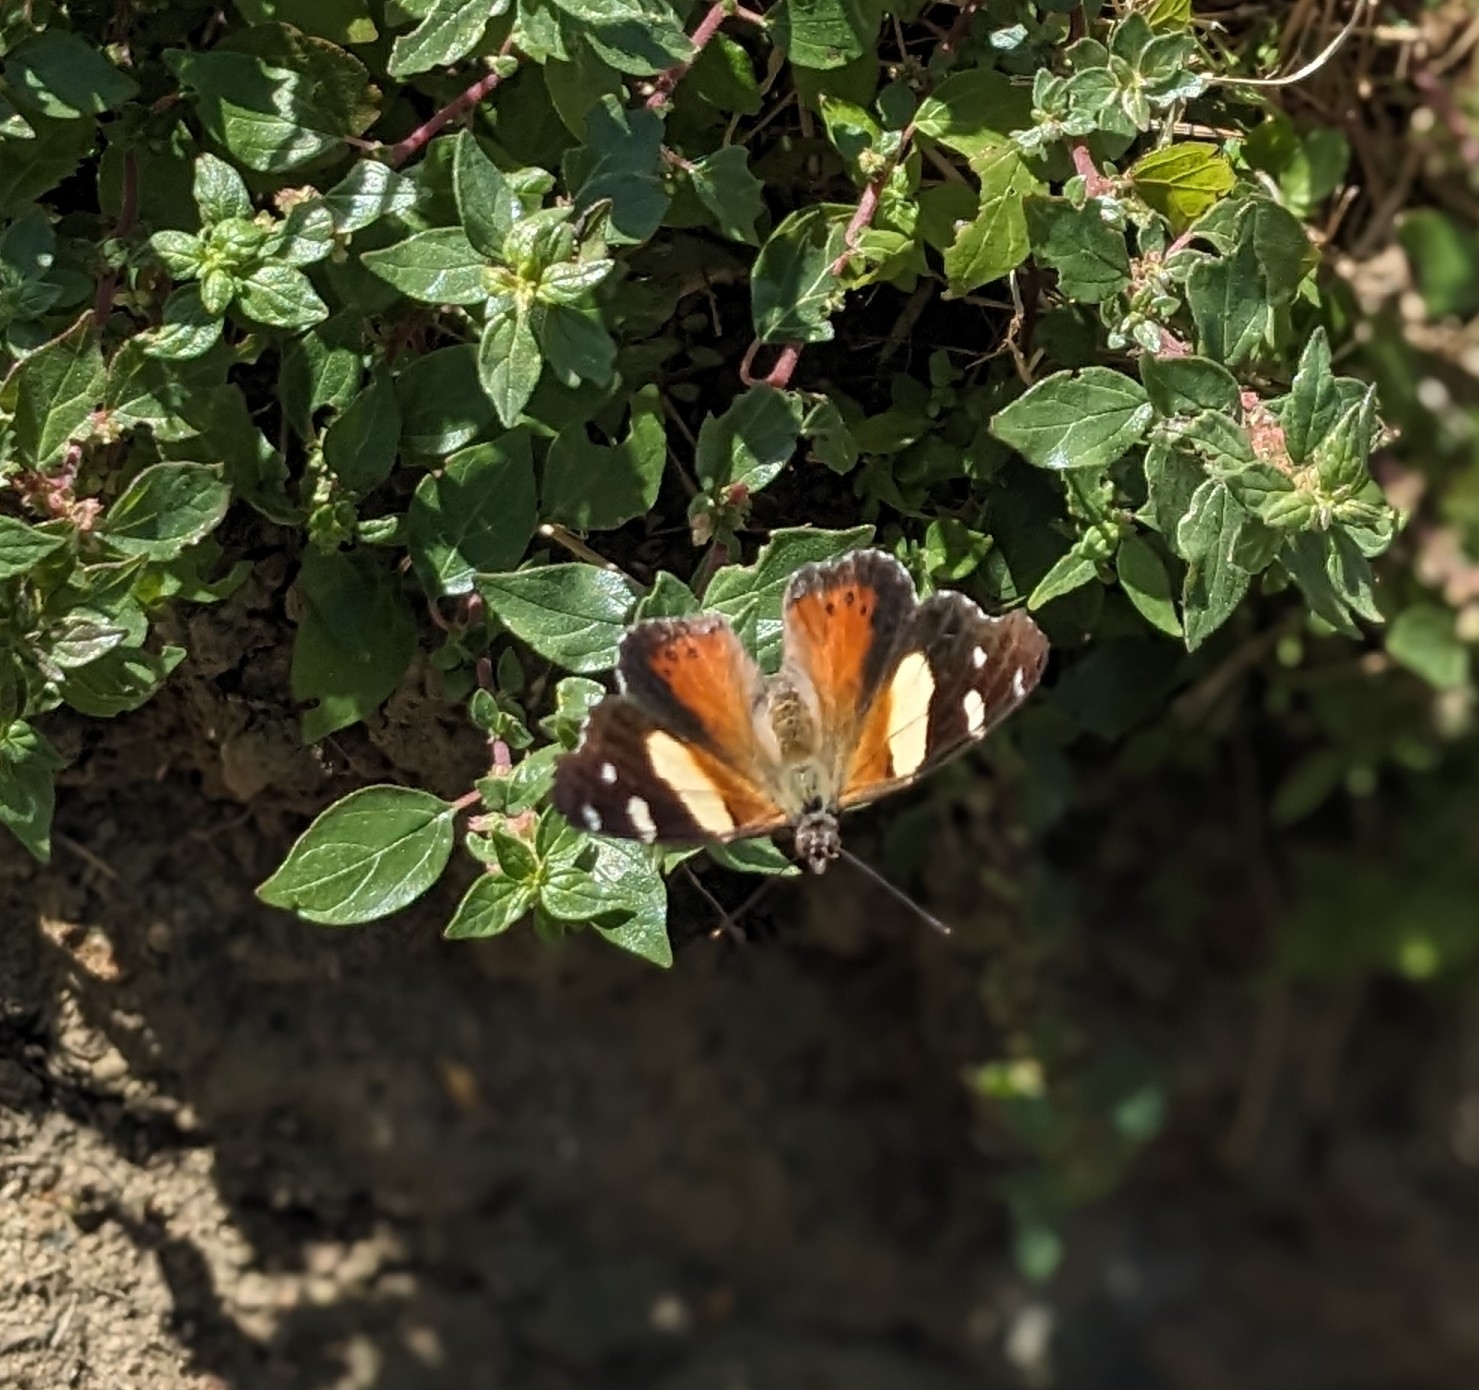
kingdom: Animalia
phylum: Arthropoda
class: Insecta
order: Lepidoptera
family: Nymphalidae
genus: Vanessa
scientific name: Vanessa itea
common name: Yellow admiral
